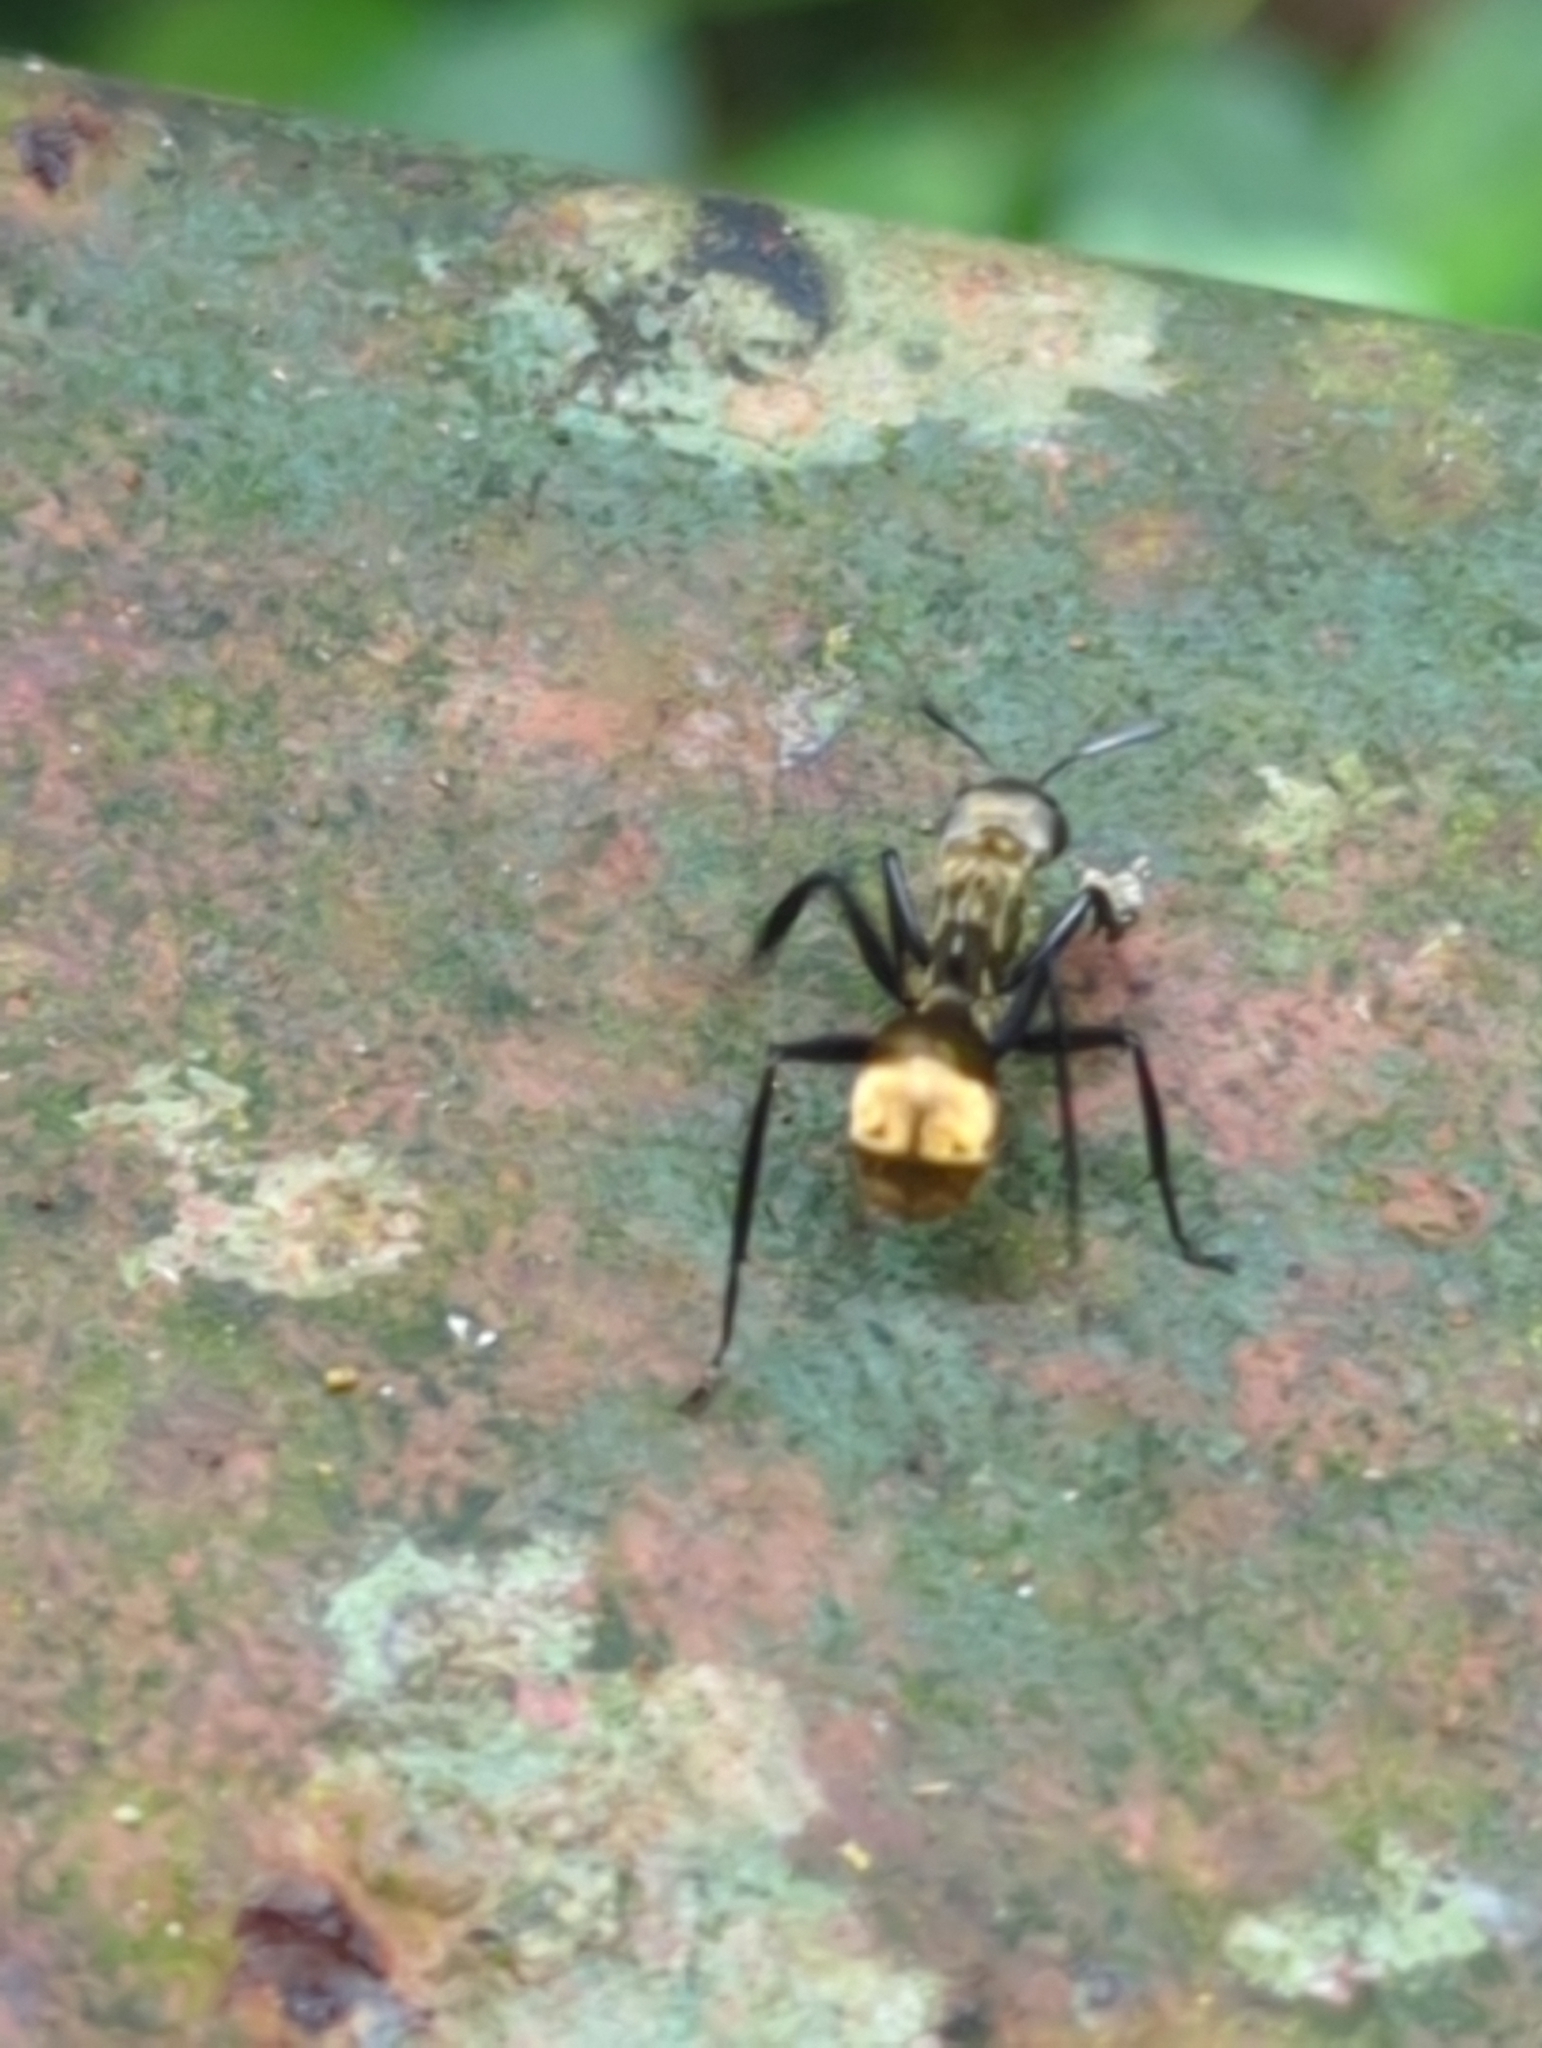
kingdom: Animalia
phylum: Arthropoda
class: Insecta
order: Hymenoptera
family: Formicidae
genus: Camponotus
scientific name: Camponotus sericeiventris
